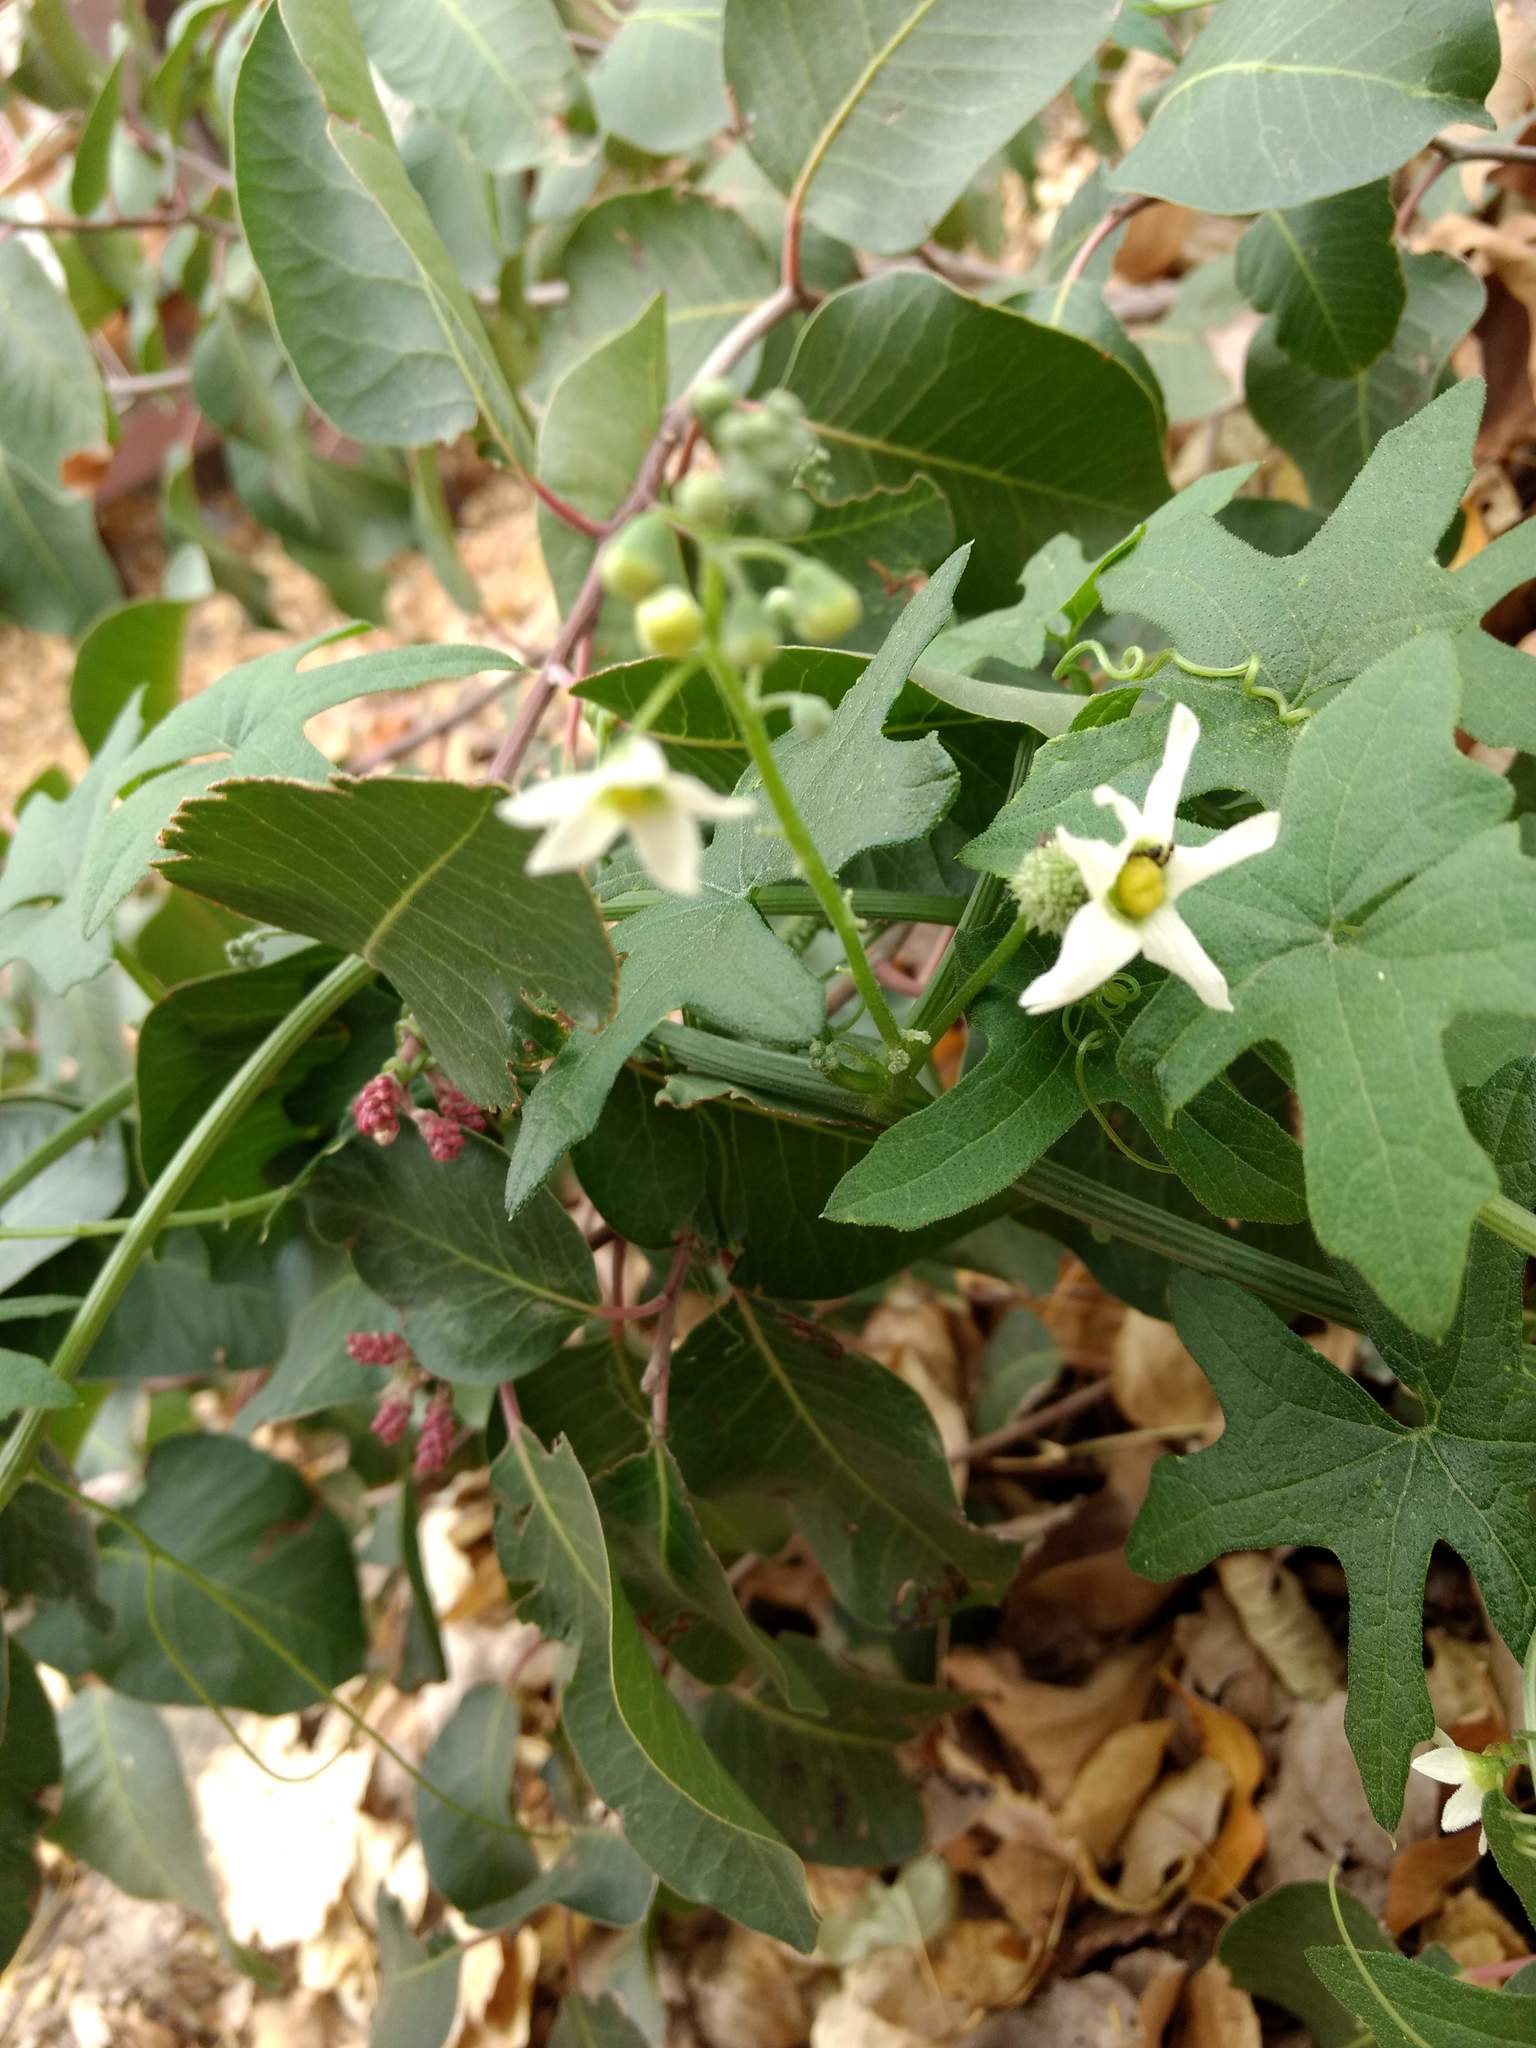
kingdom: Plantae
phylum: Tracheophyta
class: Magnoliopsida
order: Cucurbitales
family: Cucurbitaceae
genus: Marah
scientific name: Marah macrocarpa
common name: Cucamonga manroot
